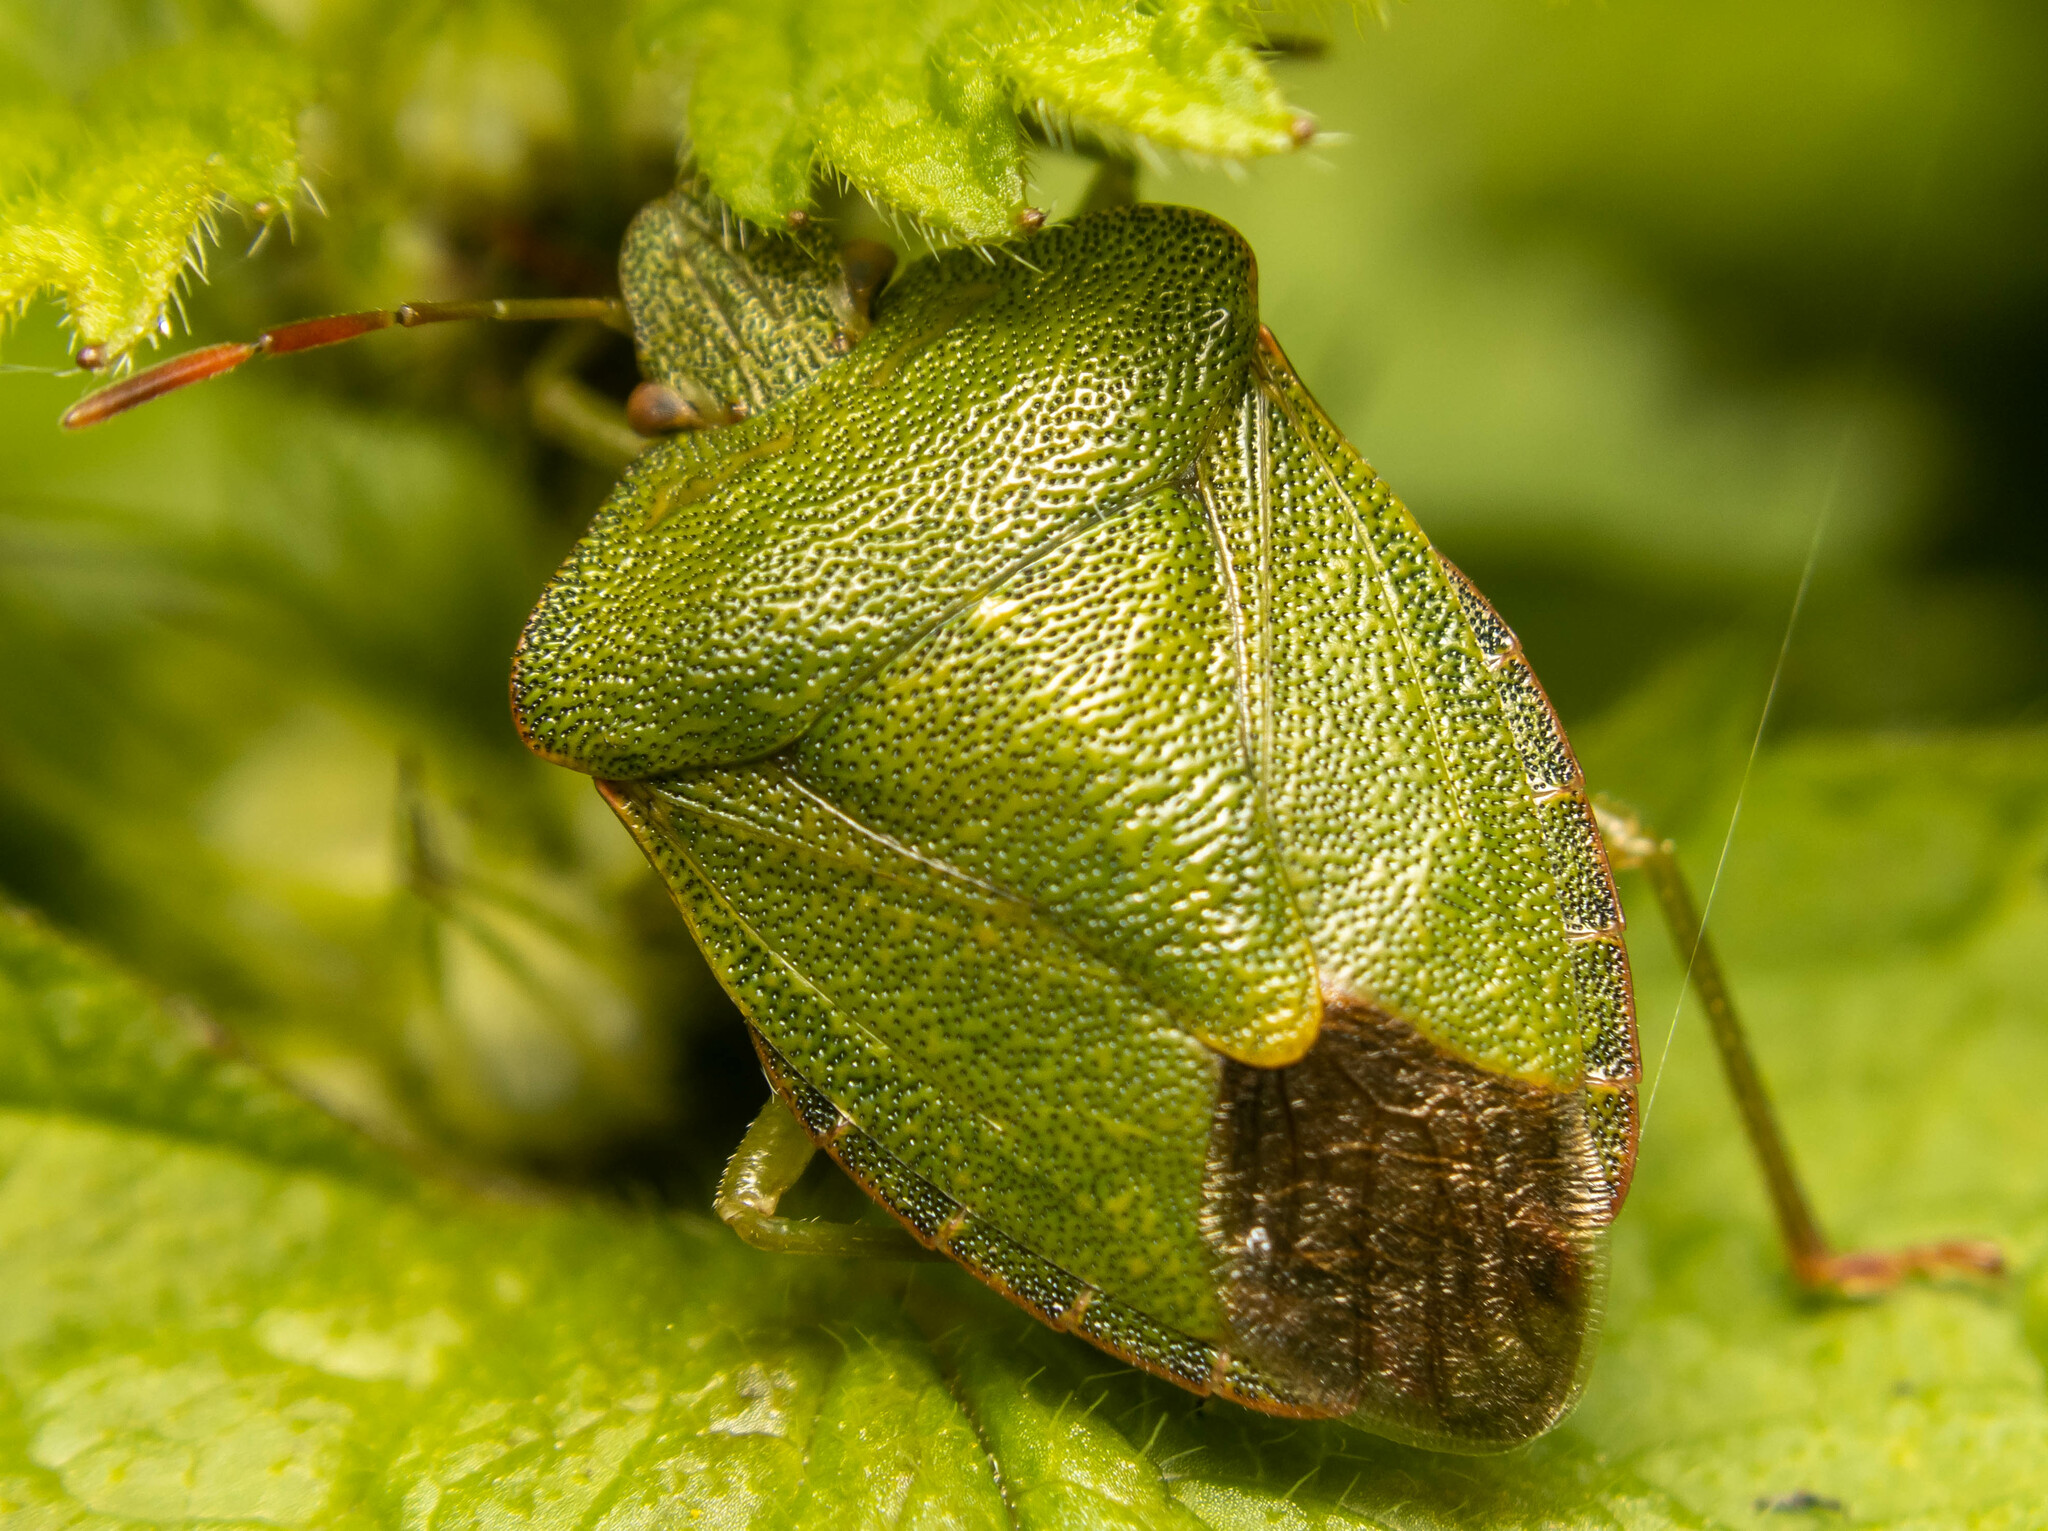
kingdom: Animalia
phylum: Arthropoda
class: Insecta
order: Hemiptera
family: Pentatomidae
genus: Palomena
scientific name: Palomena prasina
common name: Green shieldbug
